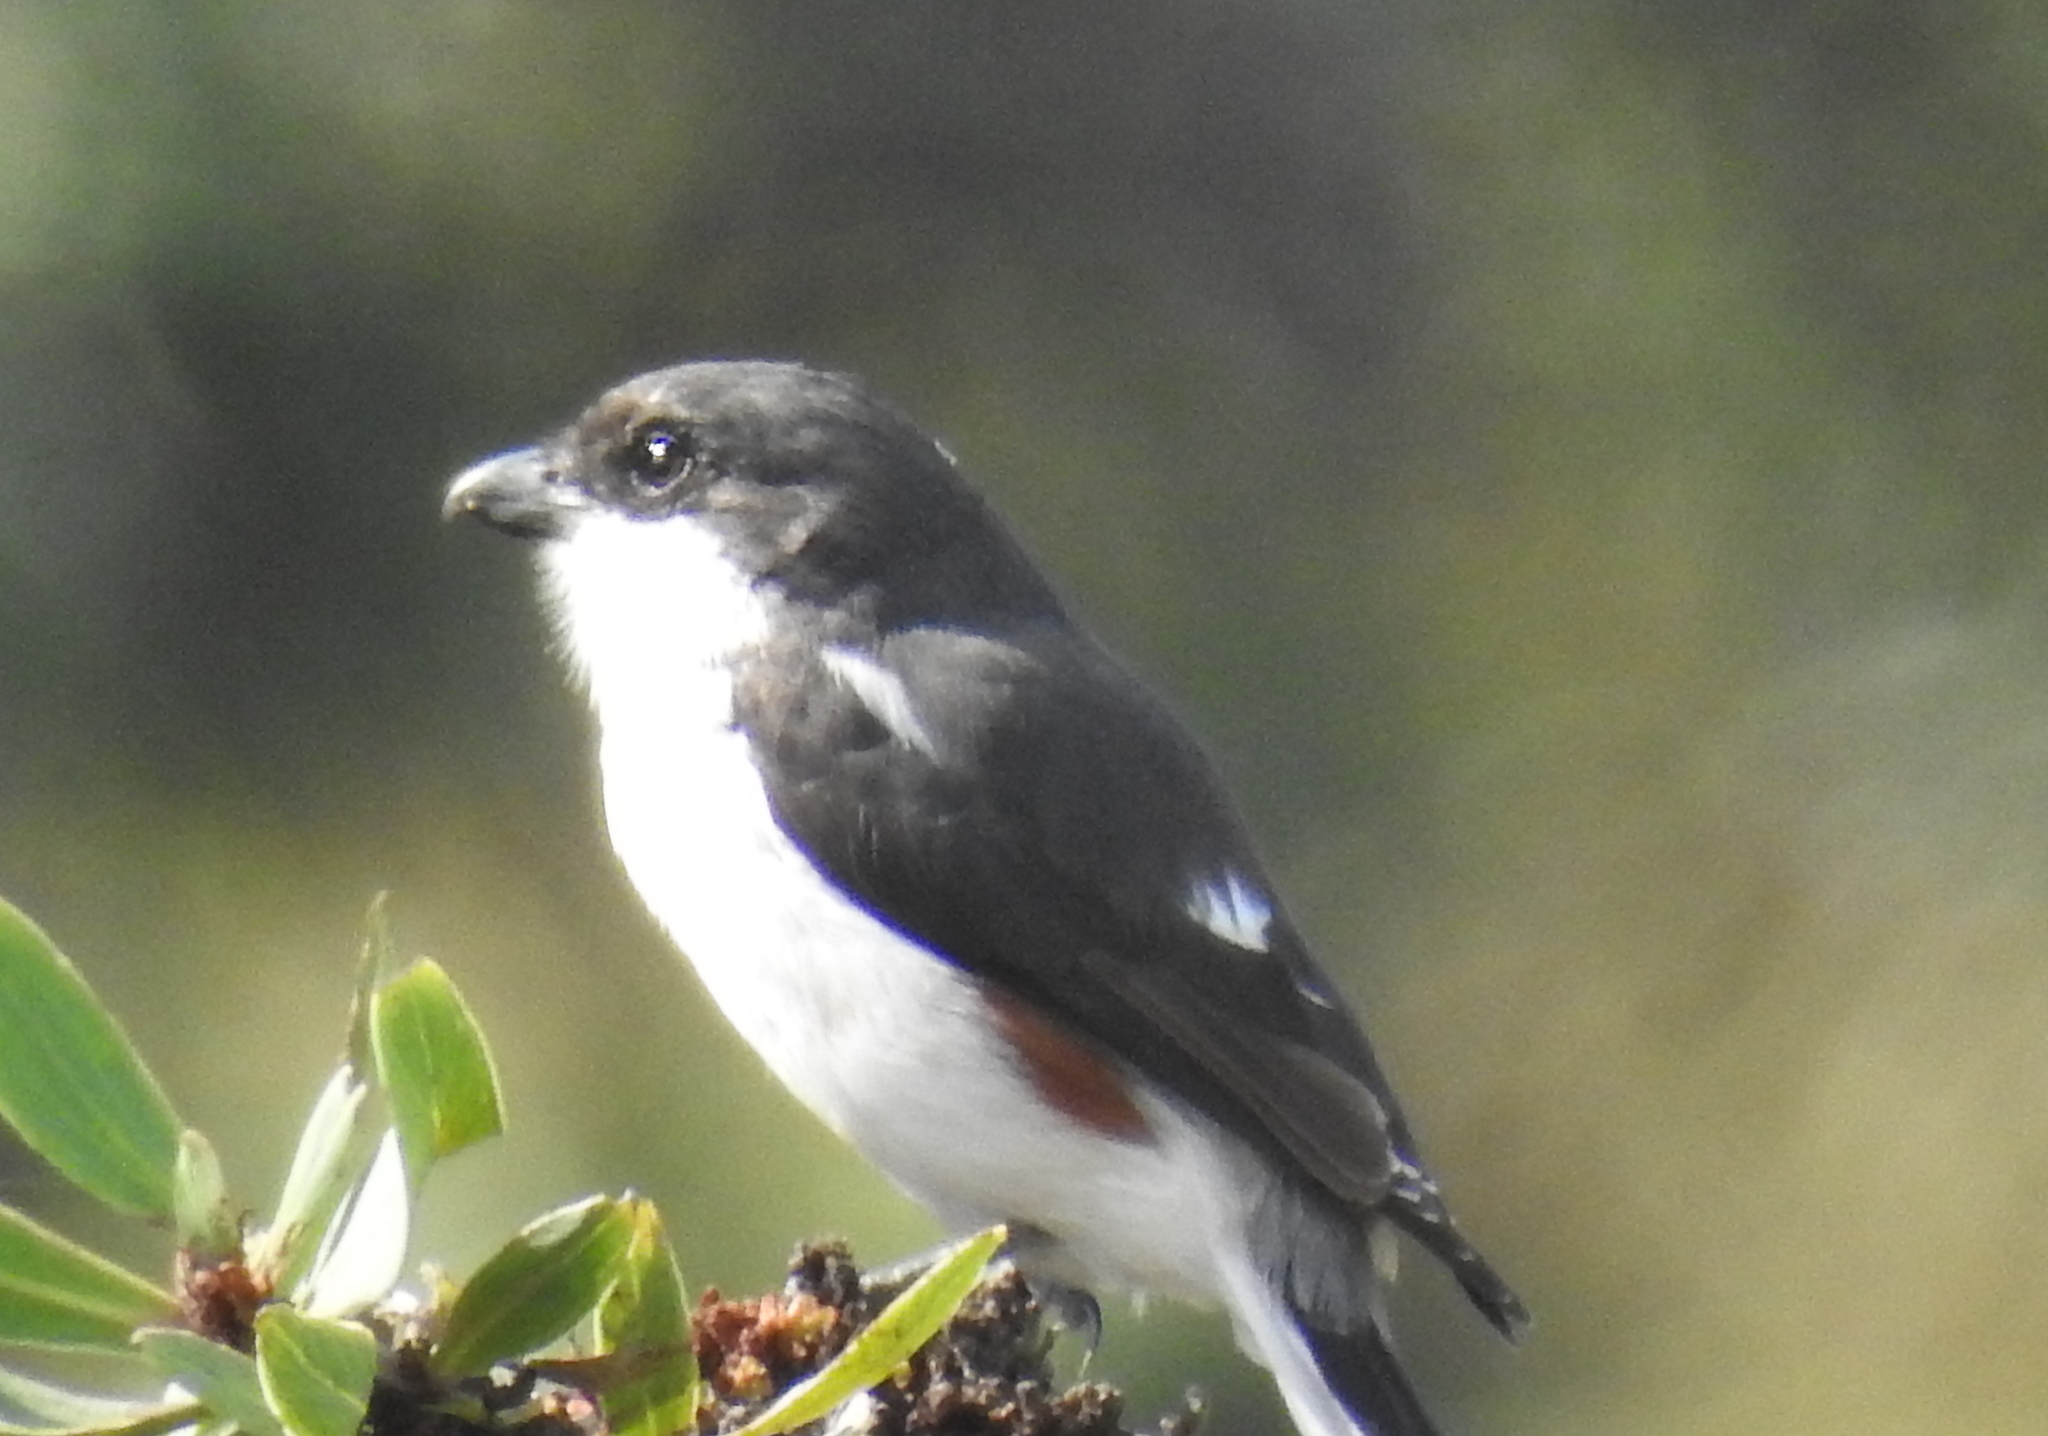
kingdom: Animalia
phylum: Chordata
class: Aves
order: Passeriformes
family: Laniidae
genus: Lanius
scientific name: Lanius collaris
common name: Southern fiscal
